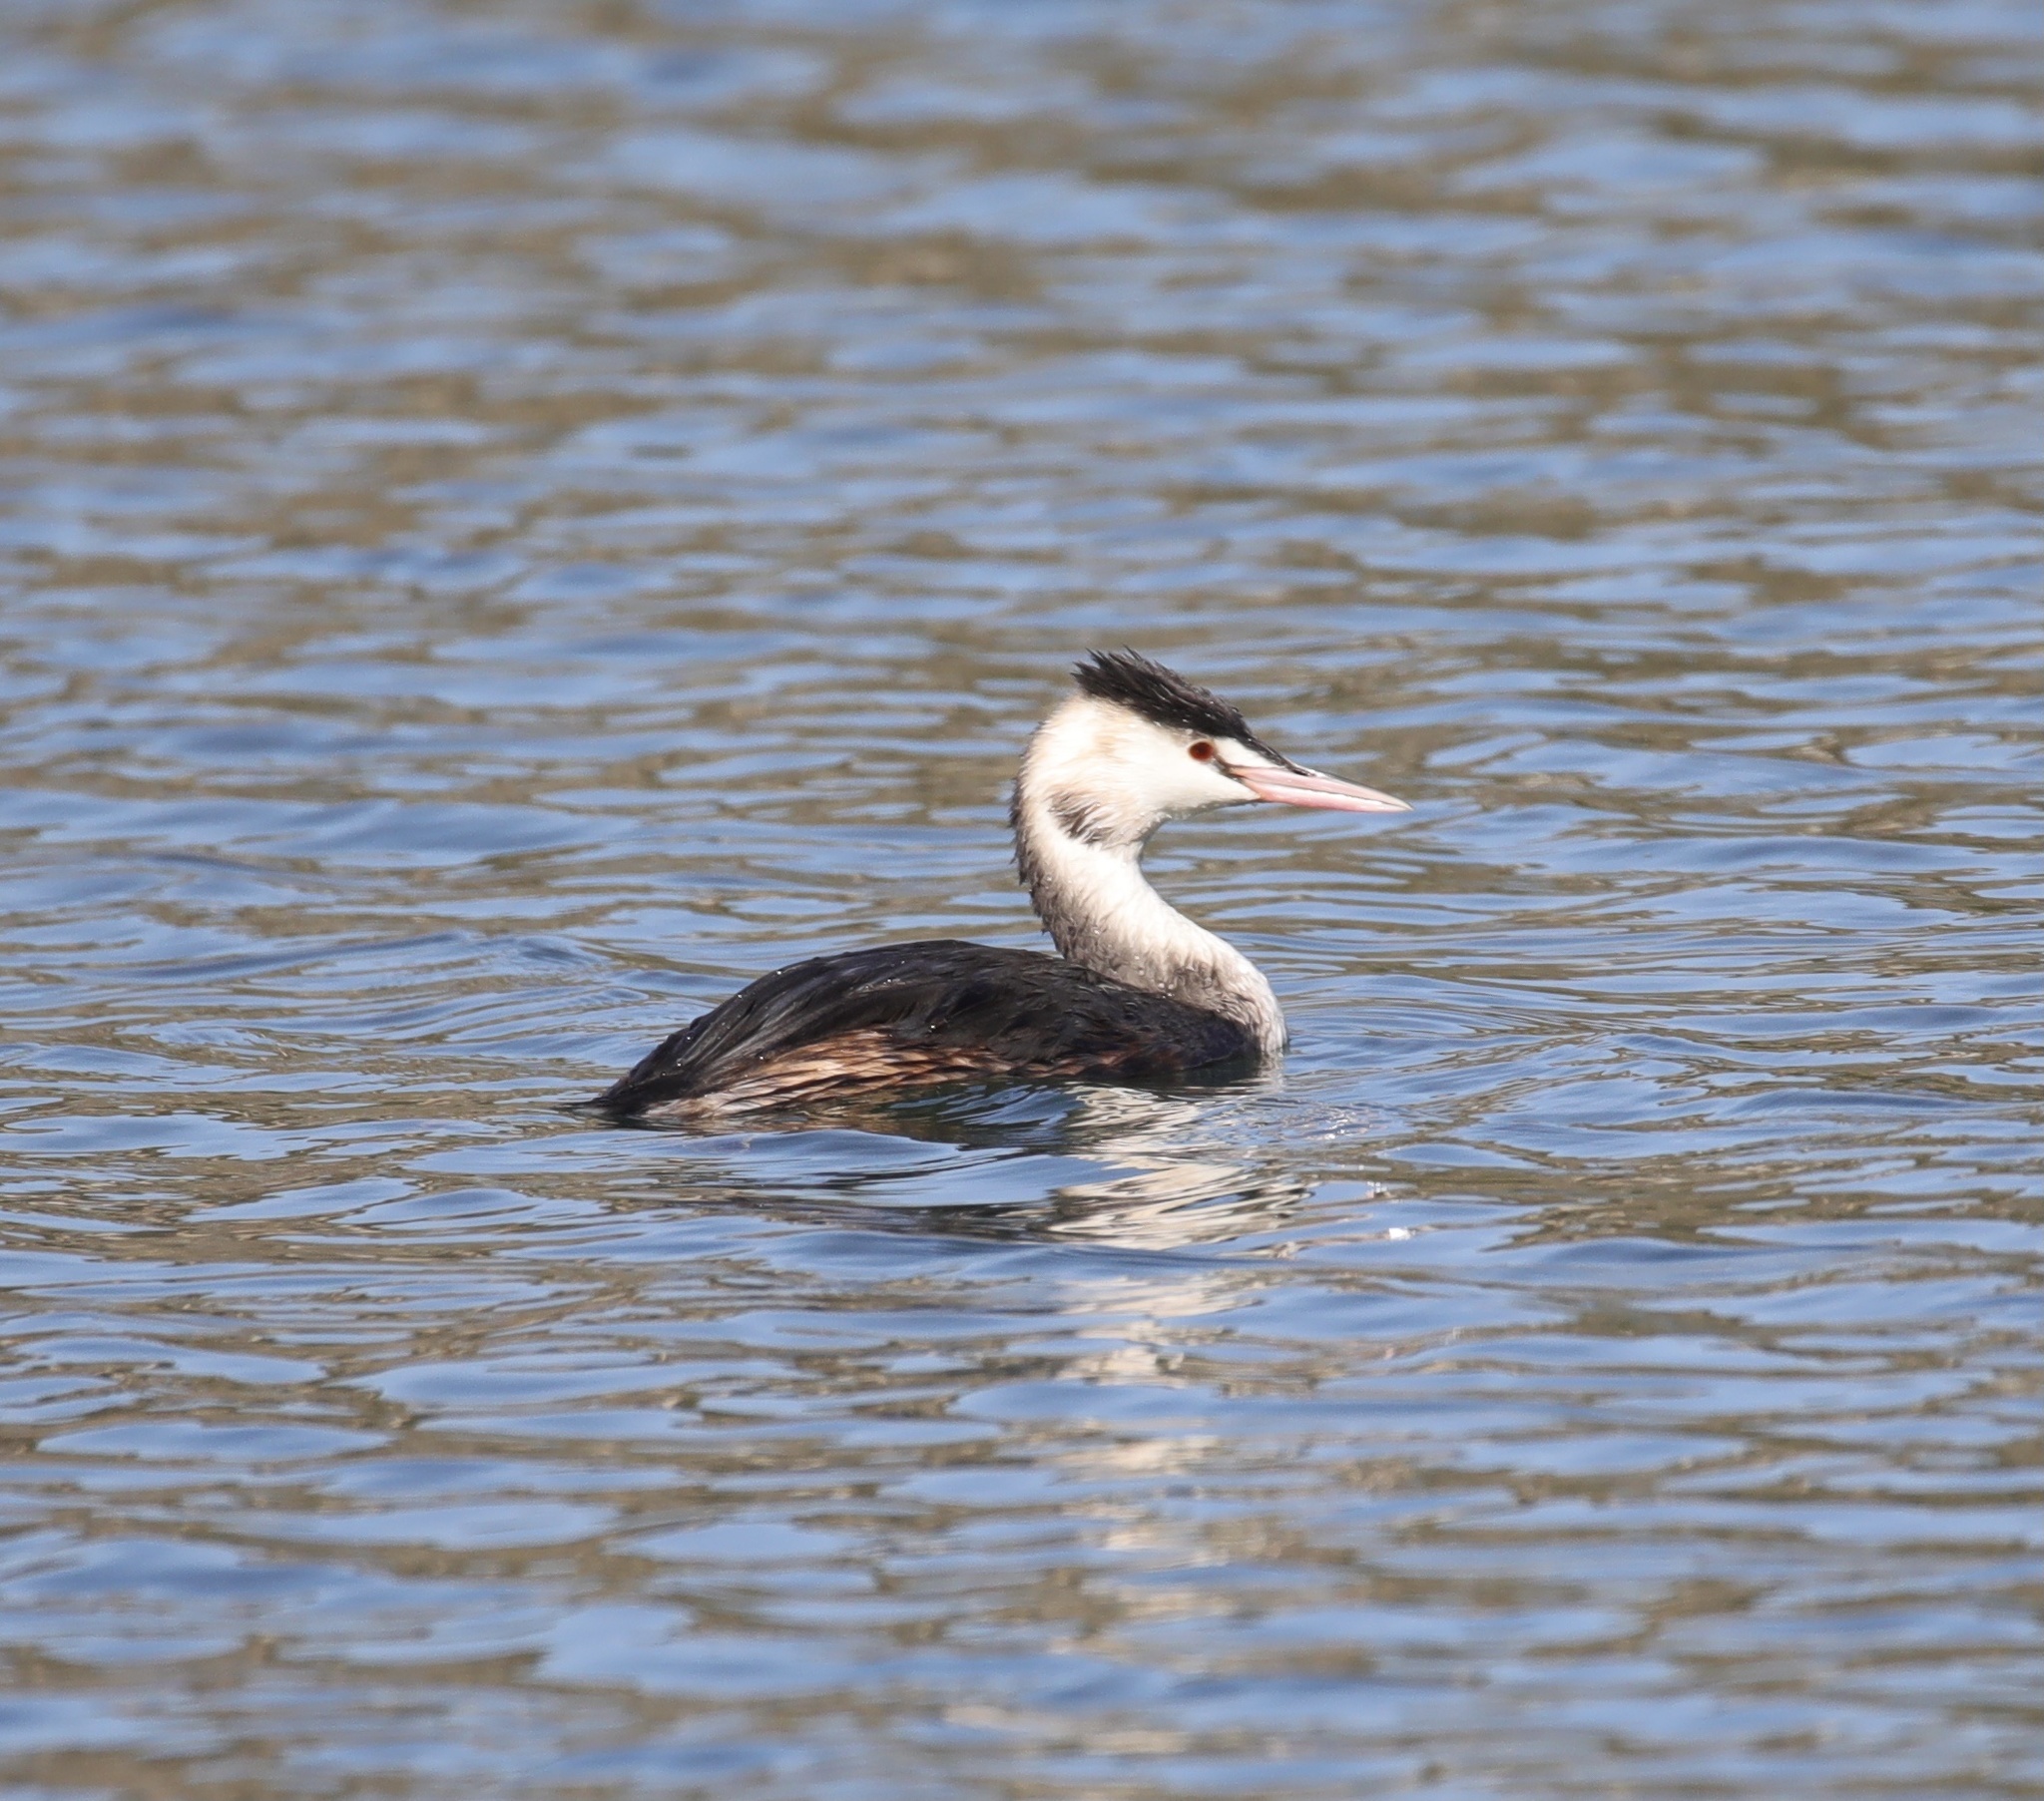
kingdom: Animalia
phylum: Chordata
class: Aves
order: Podicipediformes
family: Podicipedidae
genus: Podiceps
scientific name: Podiceps cristatus
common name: Great crested grebe
